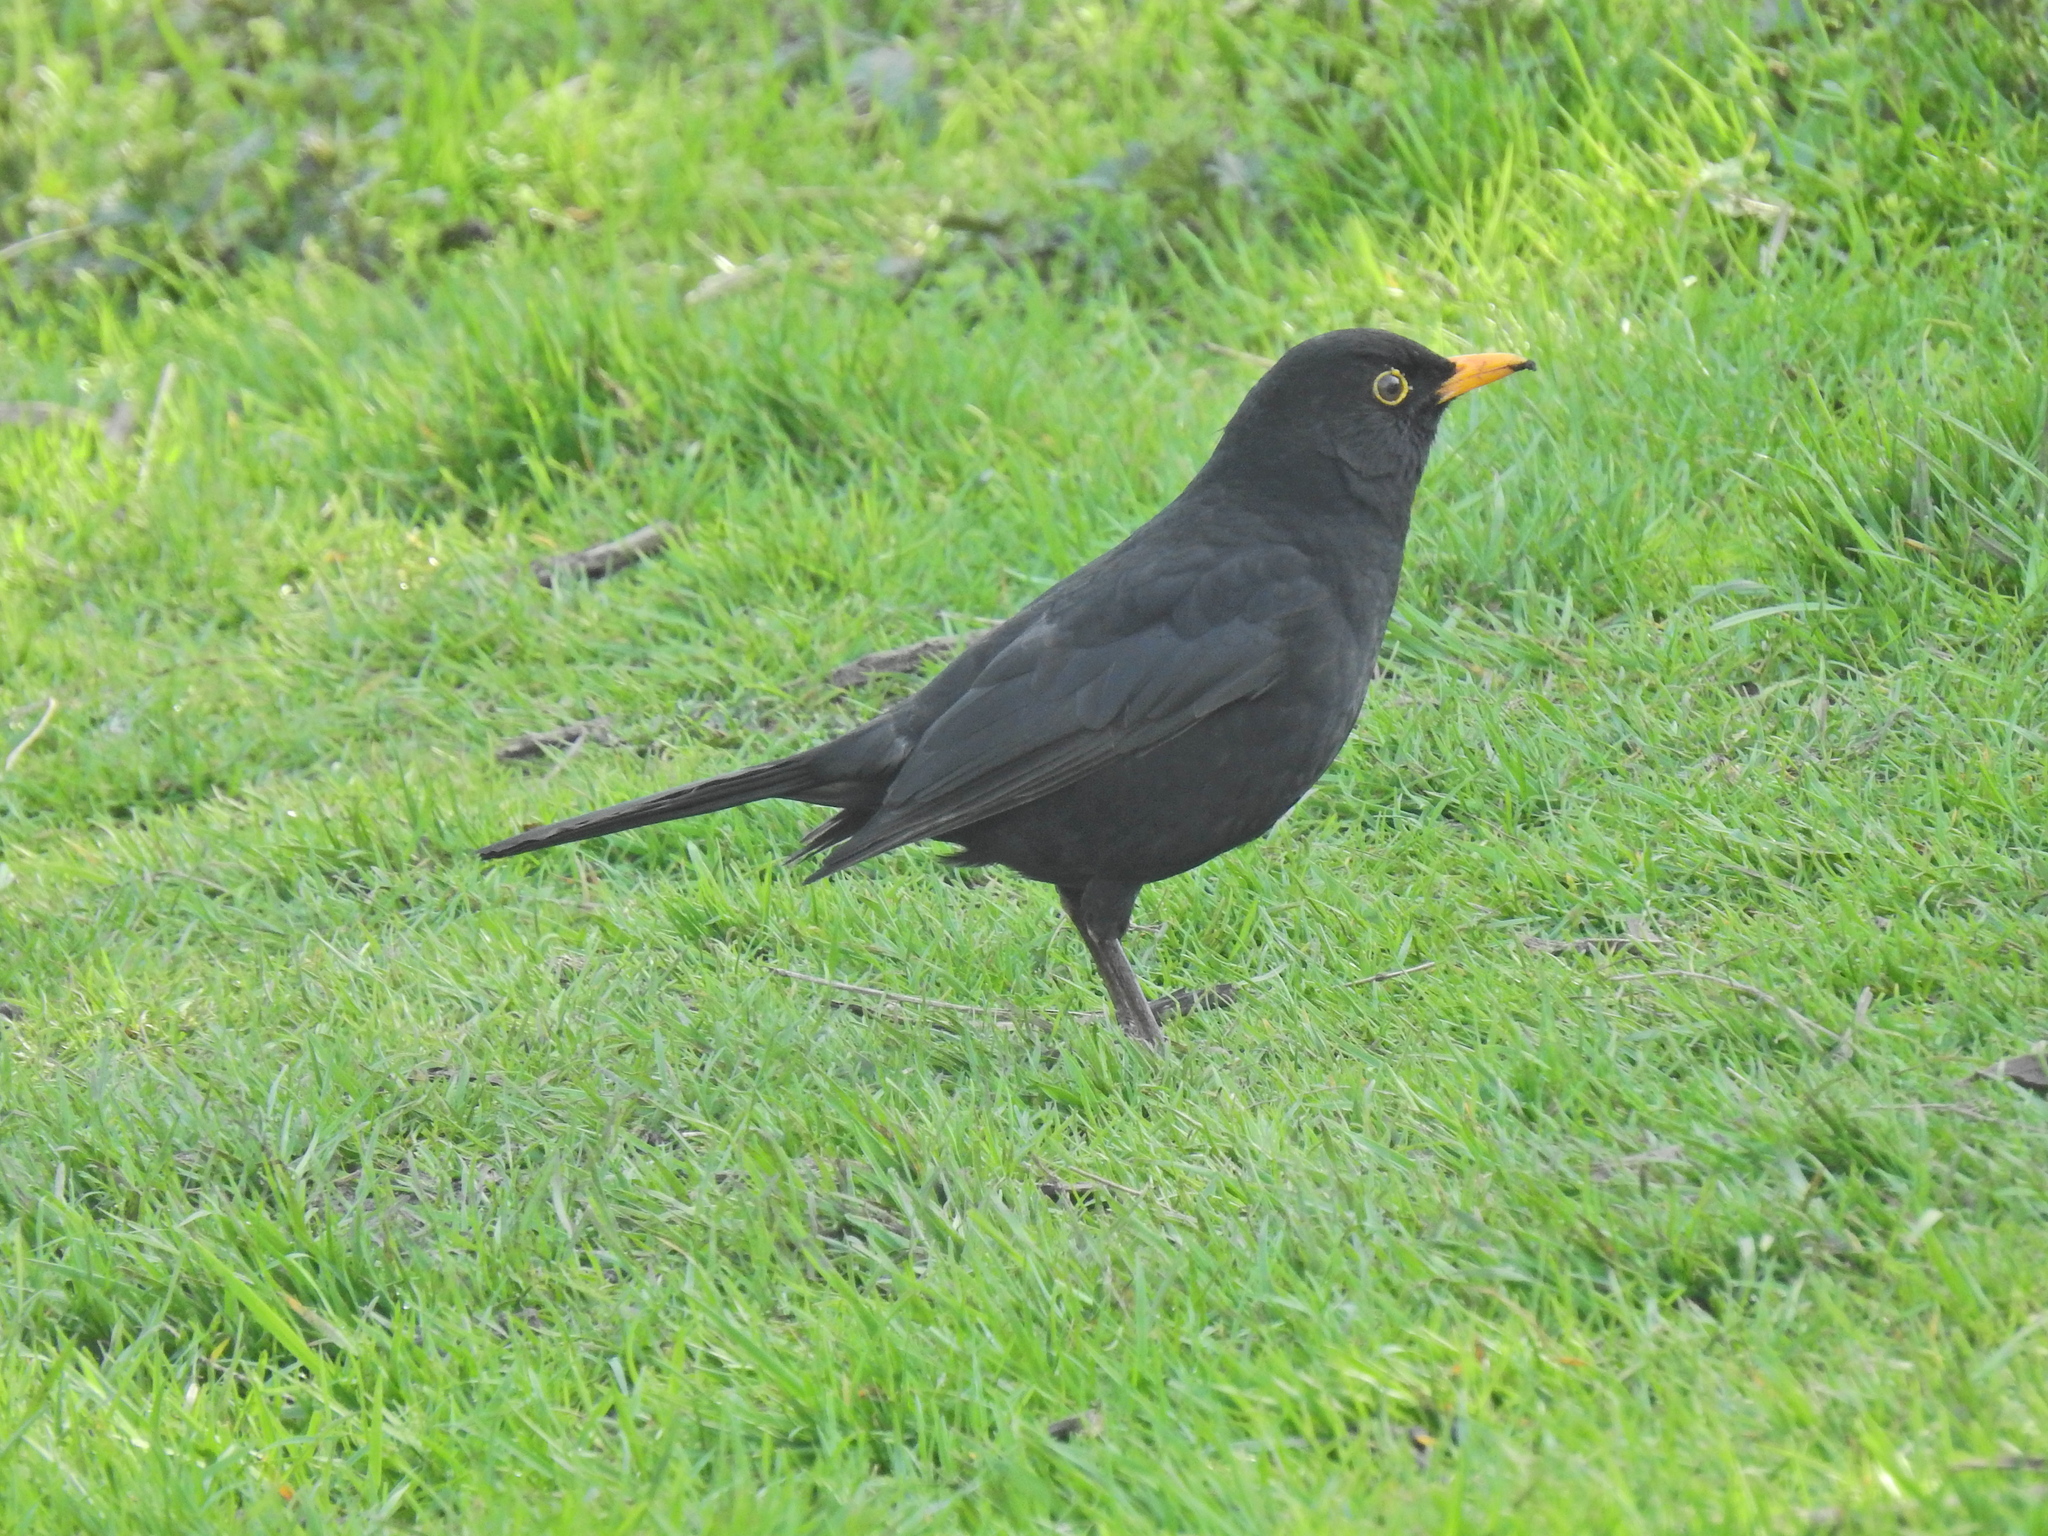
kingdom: Animalia
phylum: Chordata
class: Aves
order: Passeriformes
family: Turdidae
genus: Turdus
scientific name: Turdus merula
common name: Common blackbird
